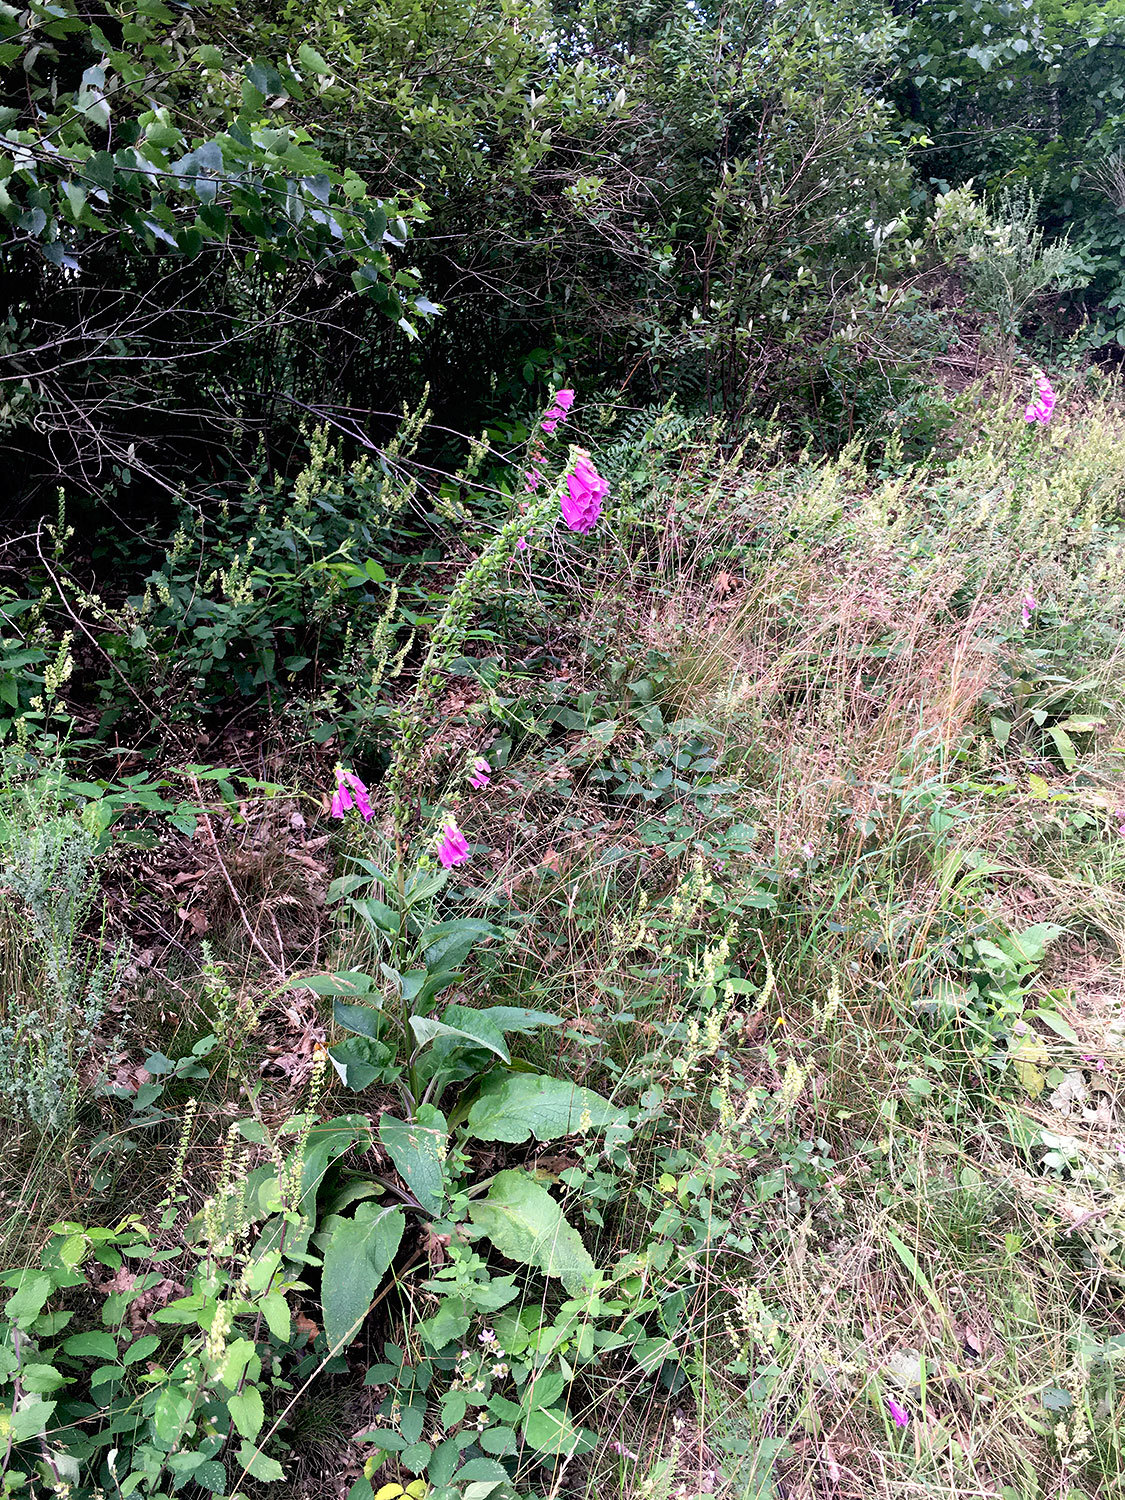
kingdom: Plantae
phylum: Tracheophyta
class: Magnoliopsida
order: Lamiales
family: Plantaginaceae
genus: Digitalis
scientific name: Digitalis purpurea
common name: Foxglove
